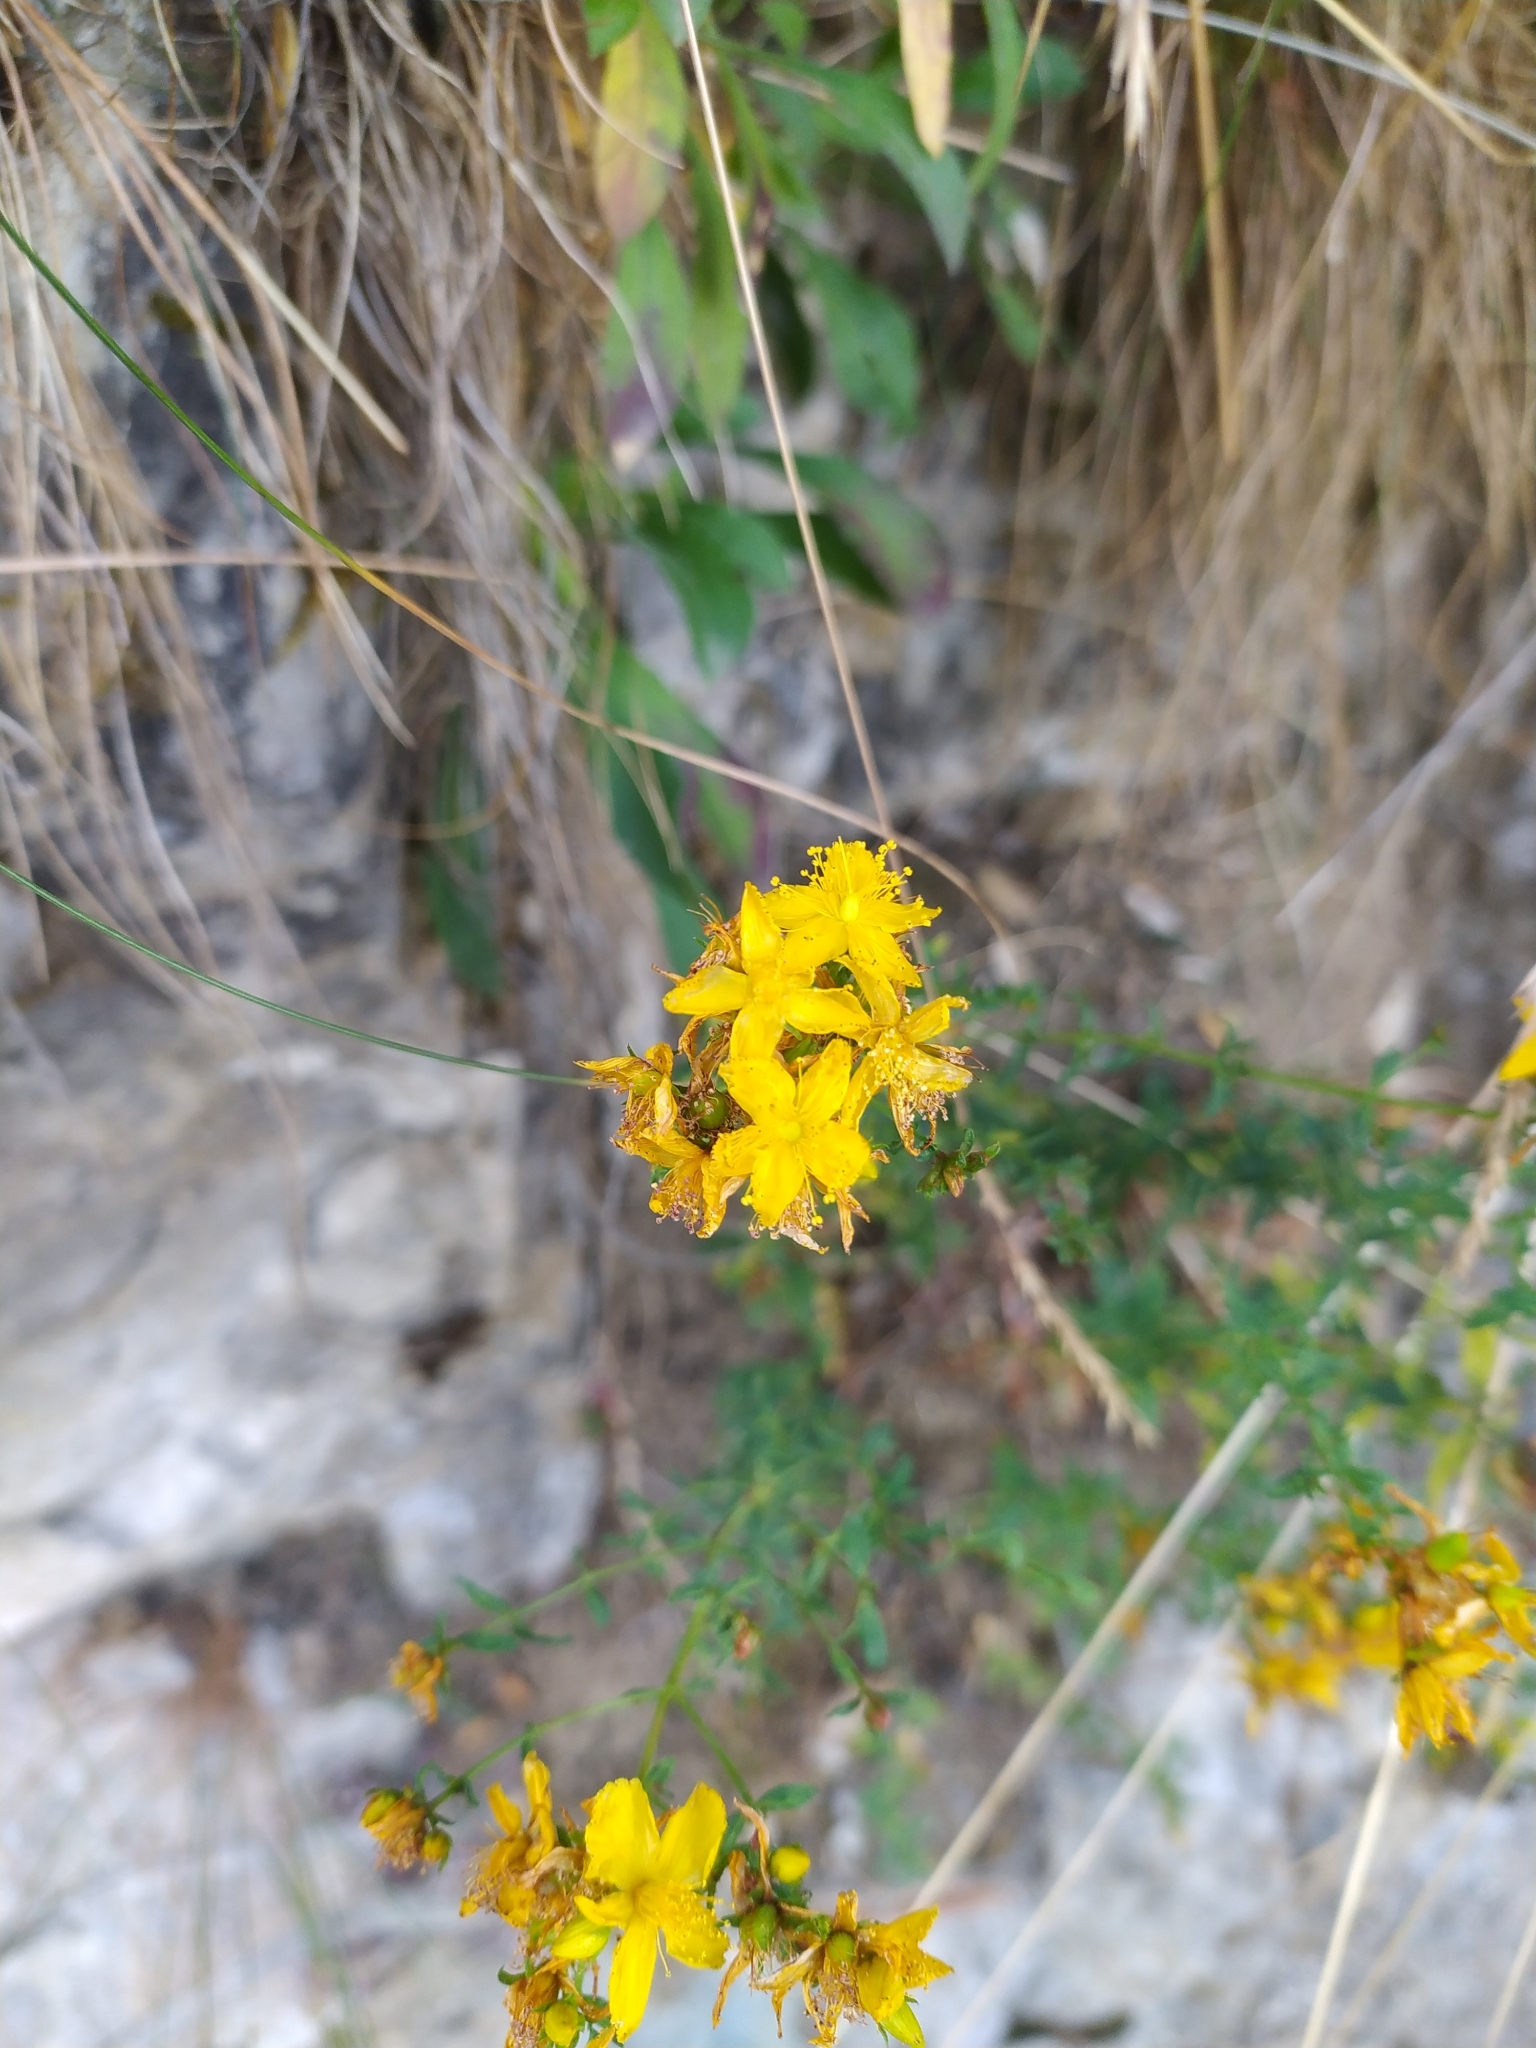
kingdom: Plantae
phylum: Tracheophyta
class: Magnoliopsida
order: Malpighiales
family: Hypericaceae
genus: Hypericum
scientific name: Hypericum perforatum
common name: Common st. johnswort
